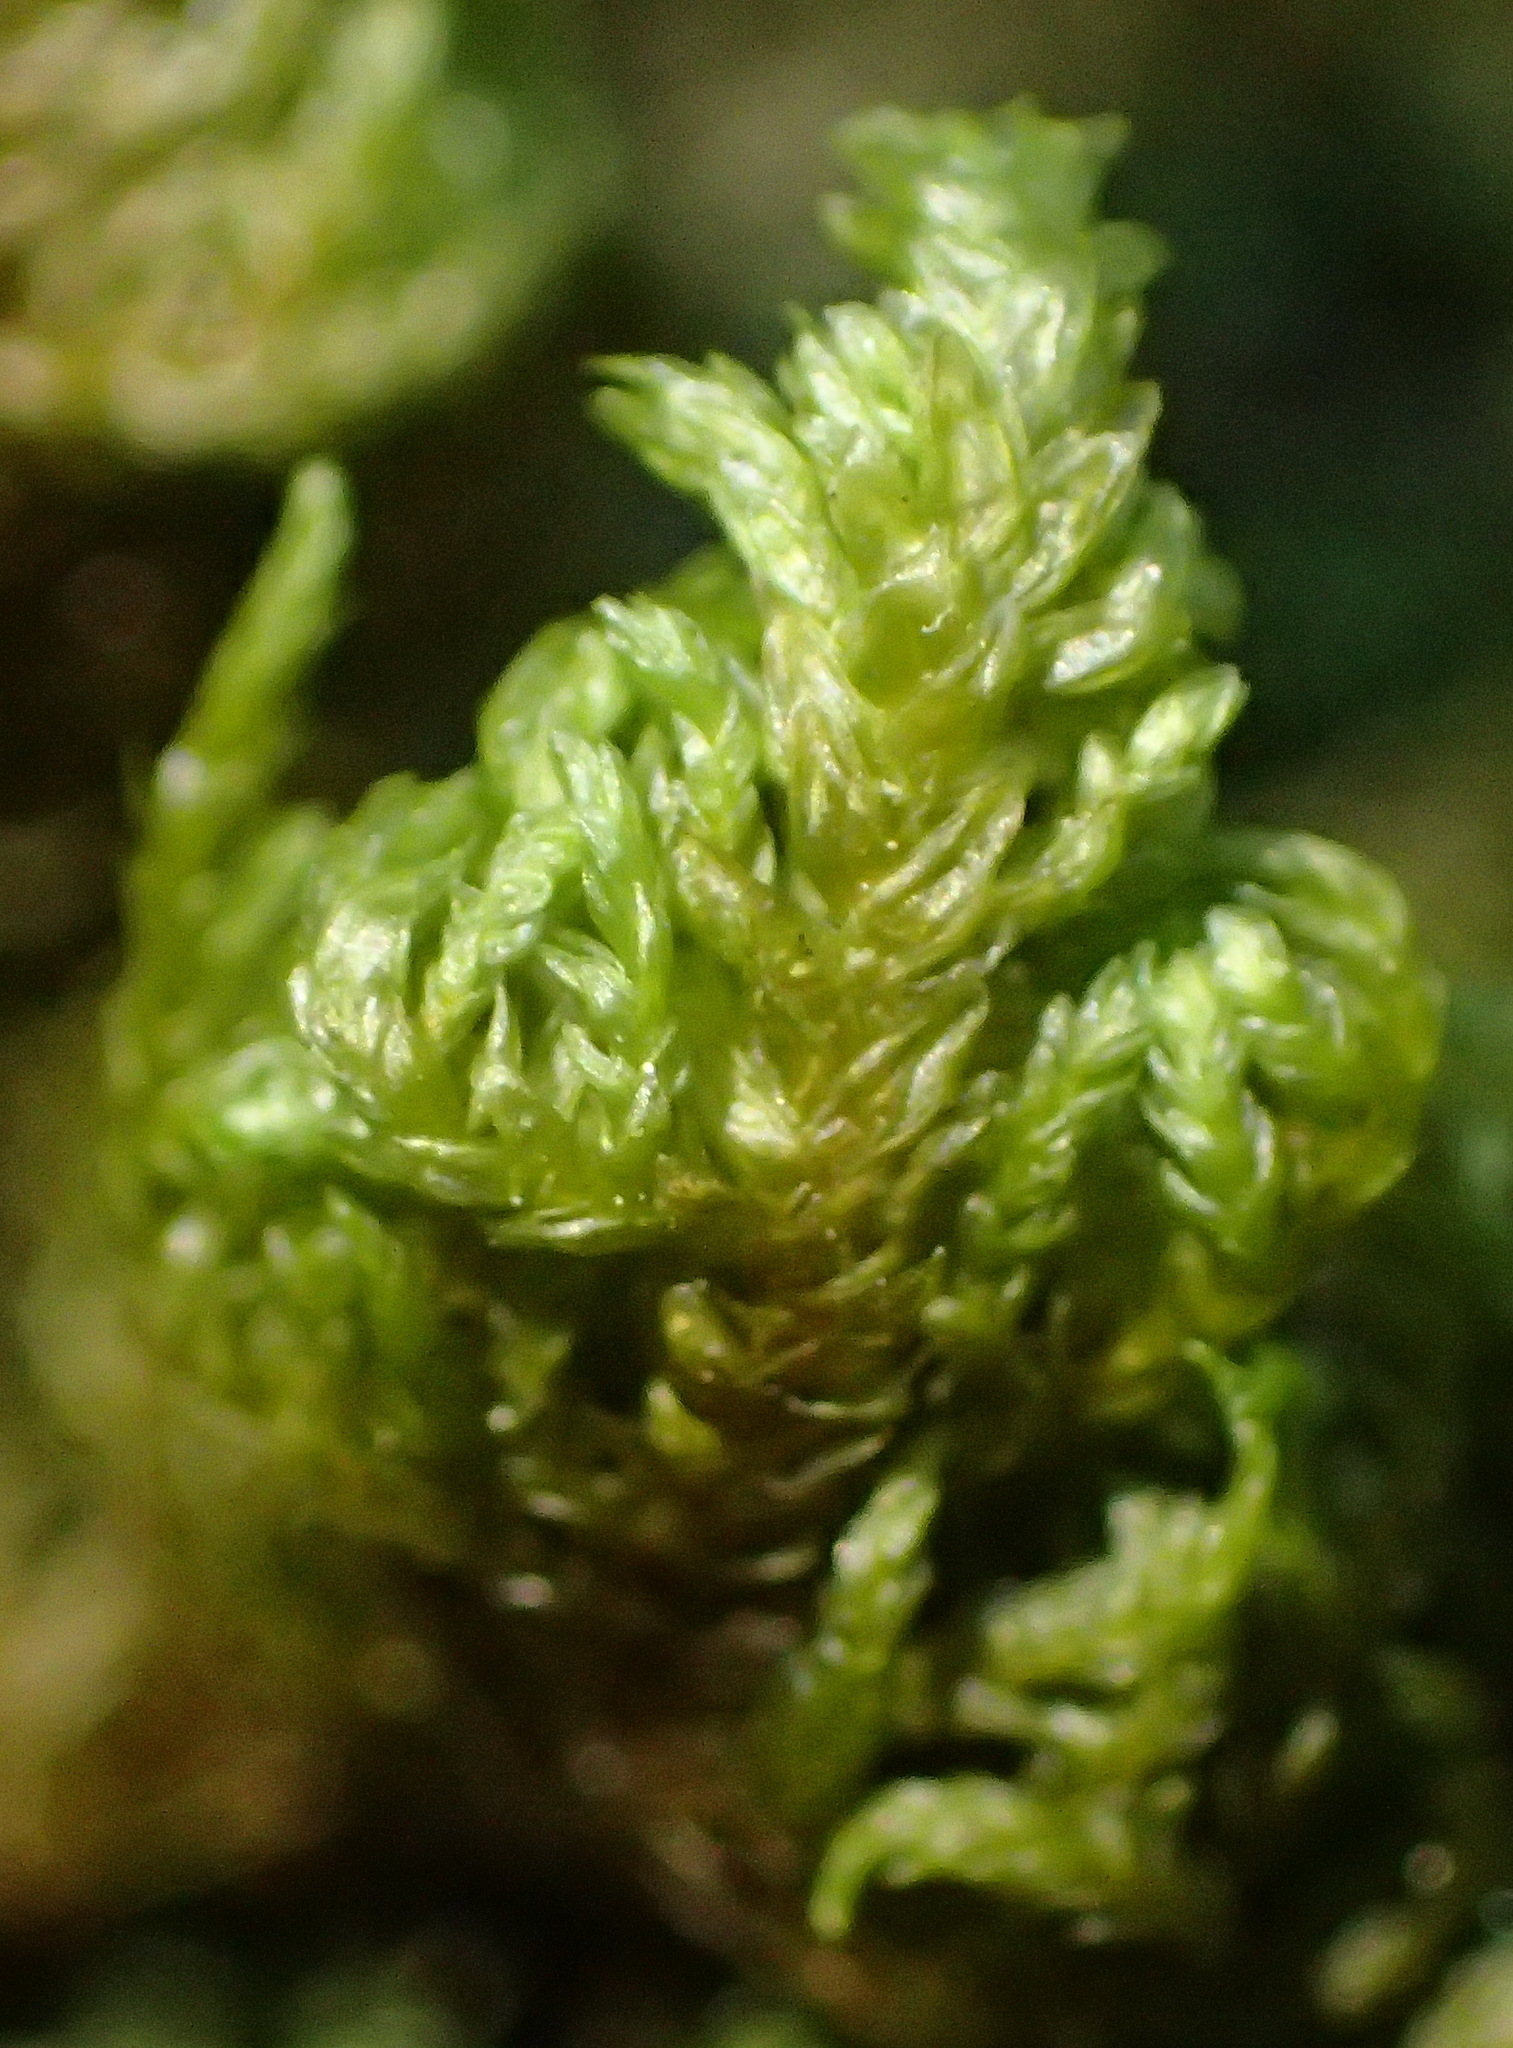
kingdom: Plantae
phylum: Bryophyta
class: Bryopsida
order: Hypnales
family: Neckeraceae
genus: Leptodon
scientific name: Leptodon smithii
